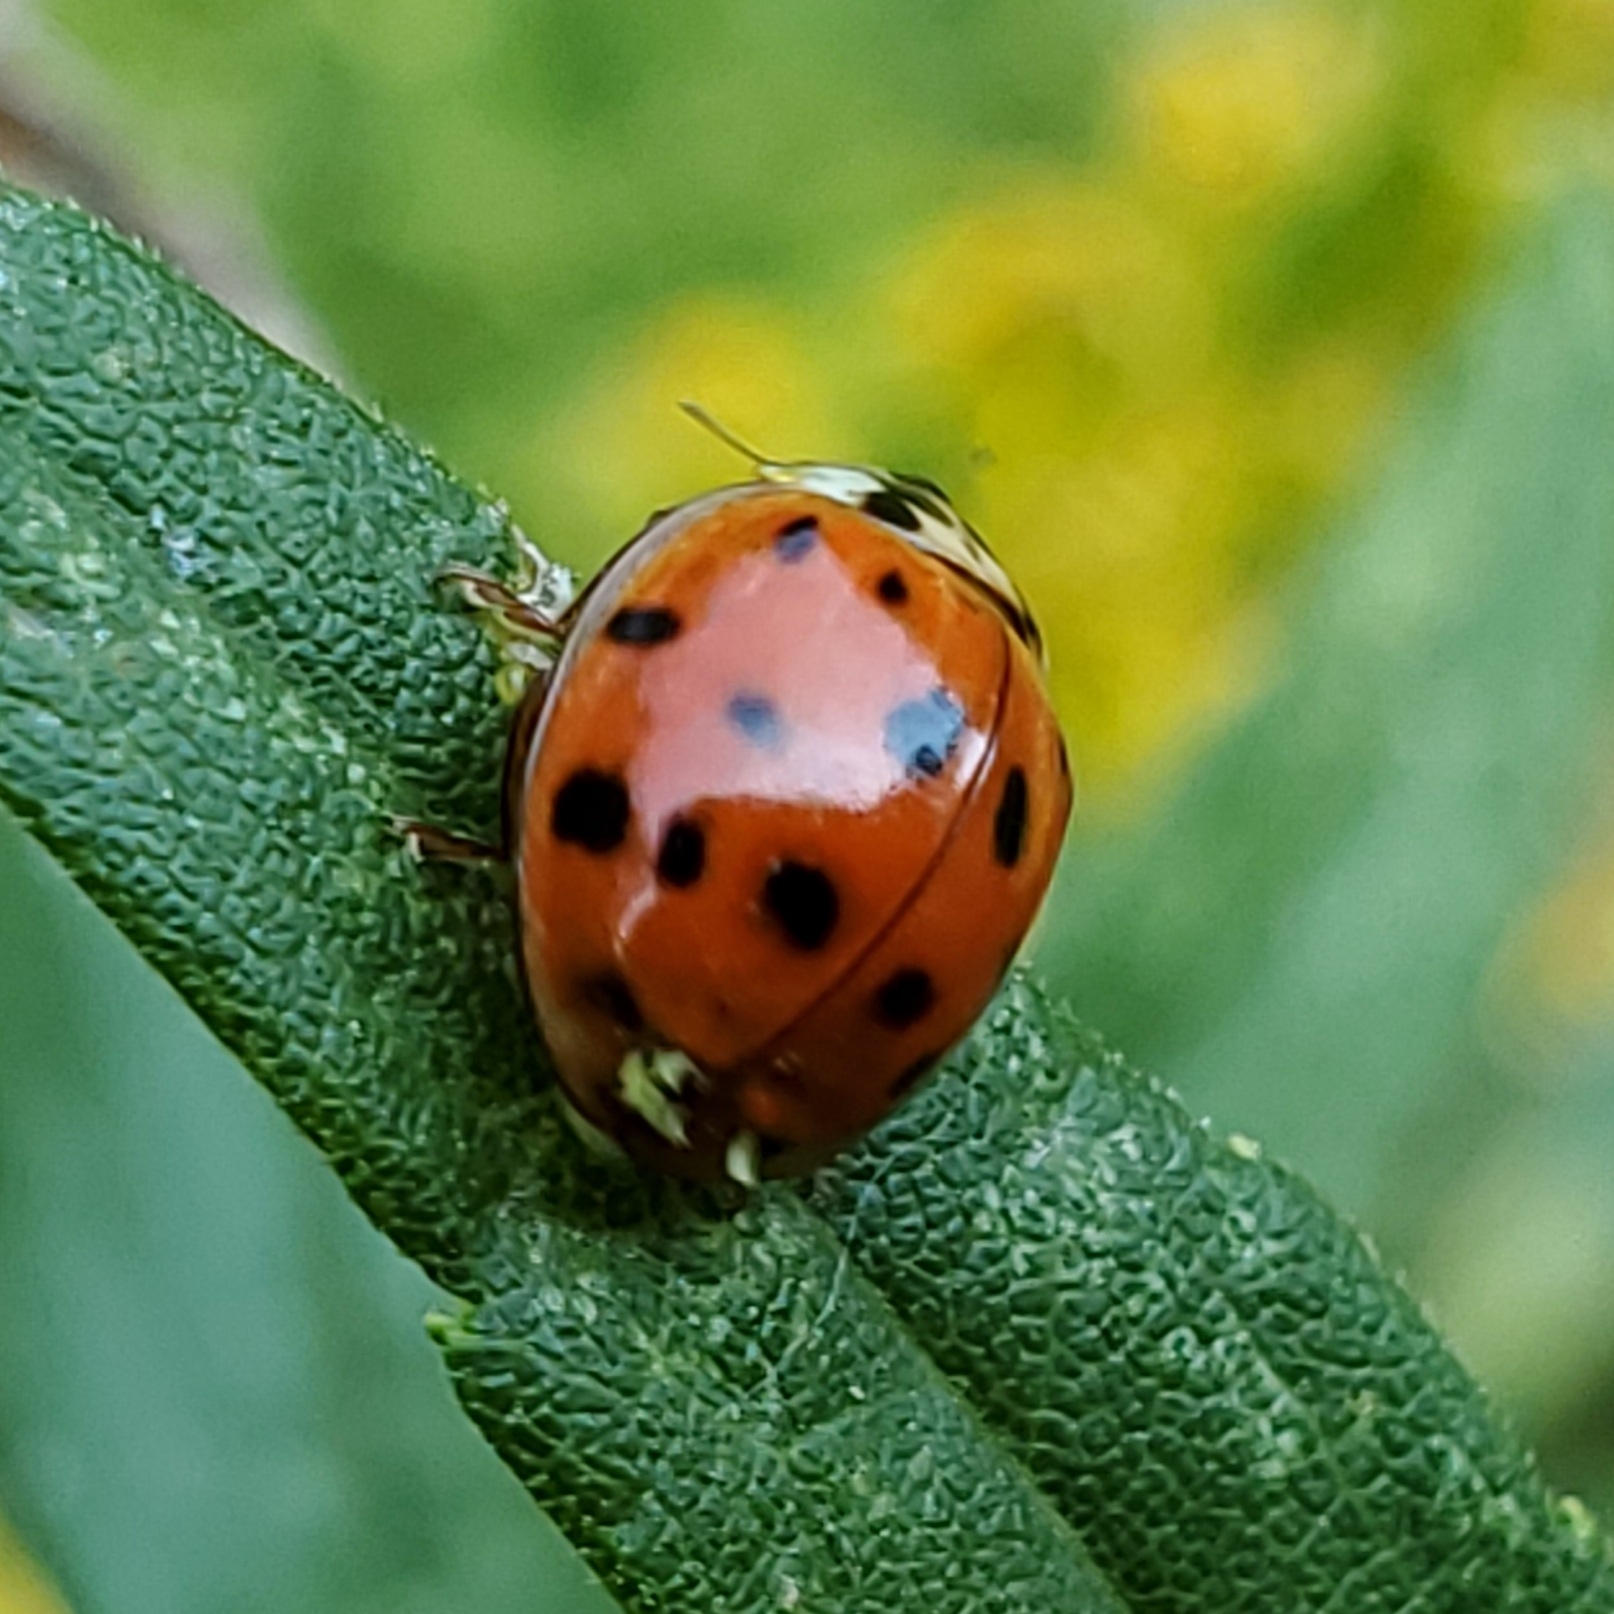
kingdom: Animalia
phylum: Arthropoda
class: Insecta
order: Coleoptera
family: Coccinellidae
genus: Harmonia
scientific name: Harmonia axyridis
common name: Harlequin ladybird
